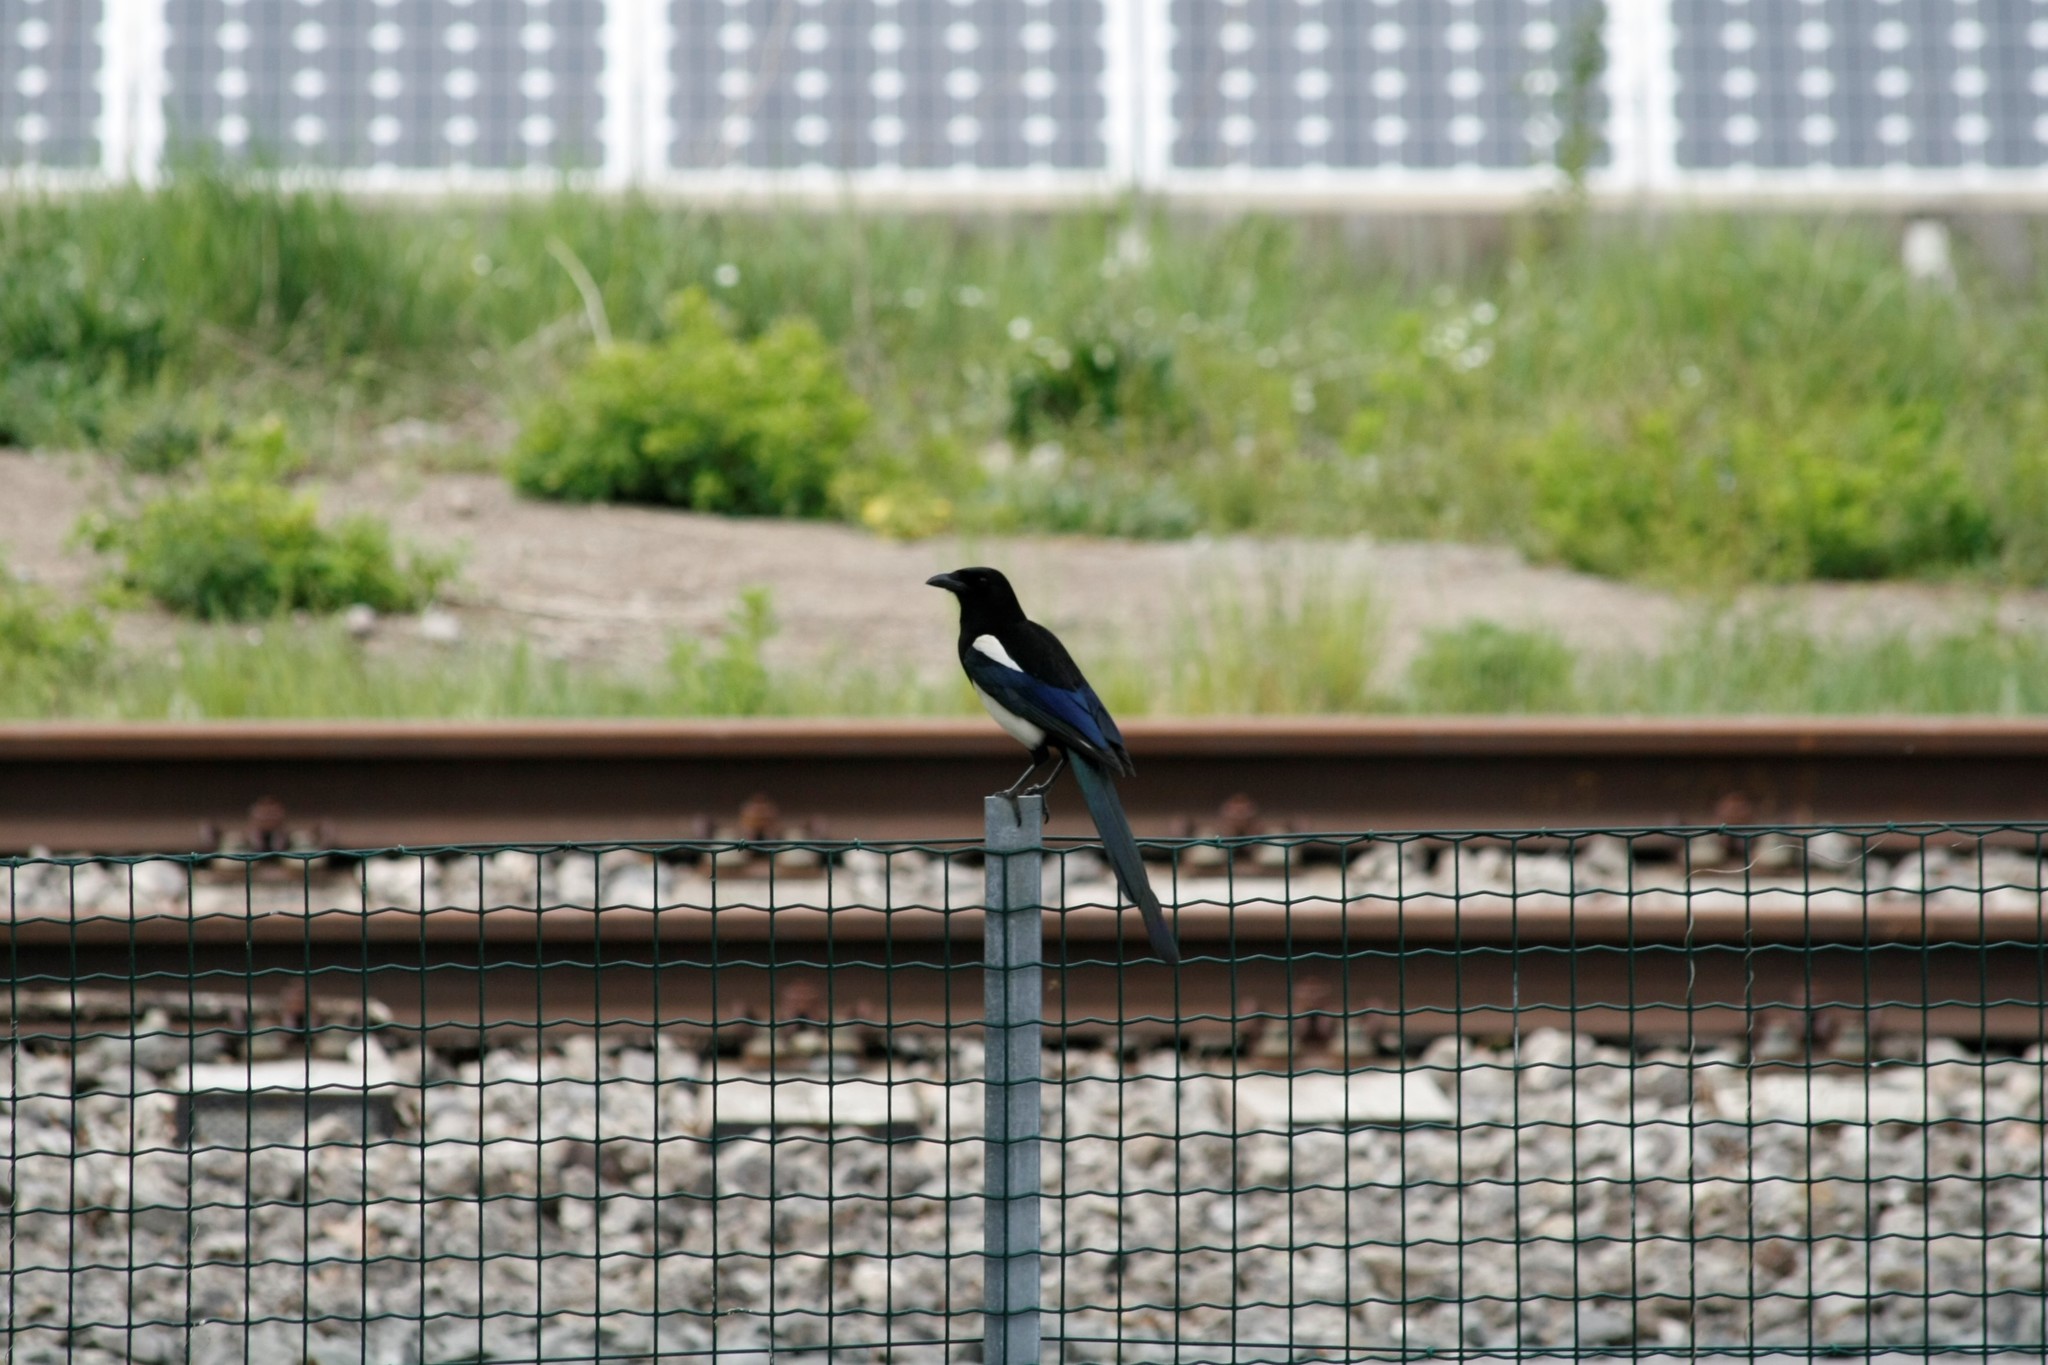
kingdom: Animalia
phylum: Chordata
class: Aves
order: Passeriformes
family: Corvidae
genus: Pica
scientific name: Pica pica
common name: Eurasian magpie
